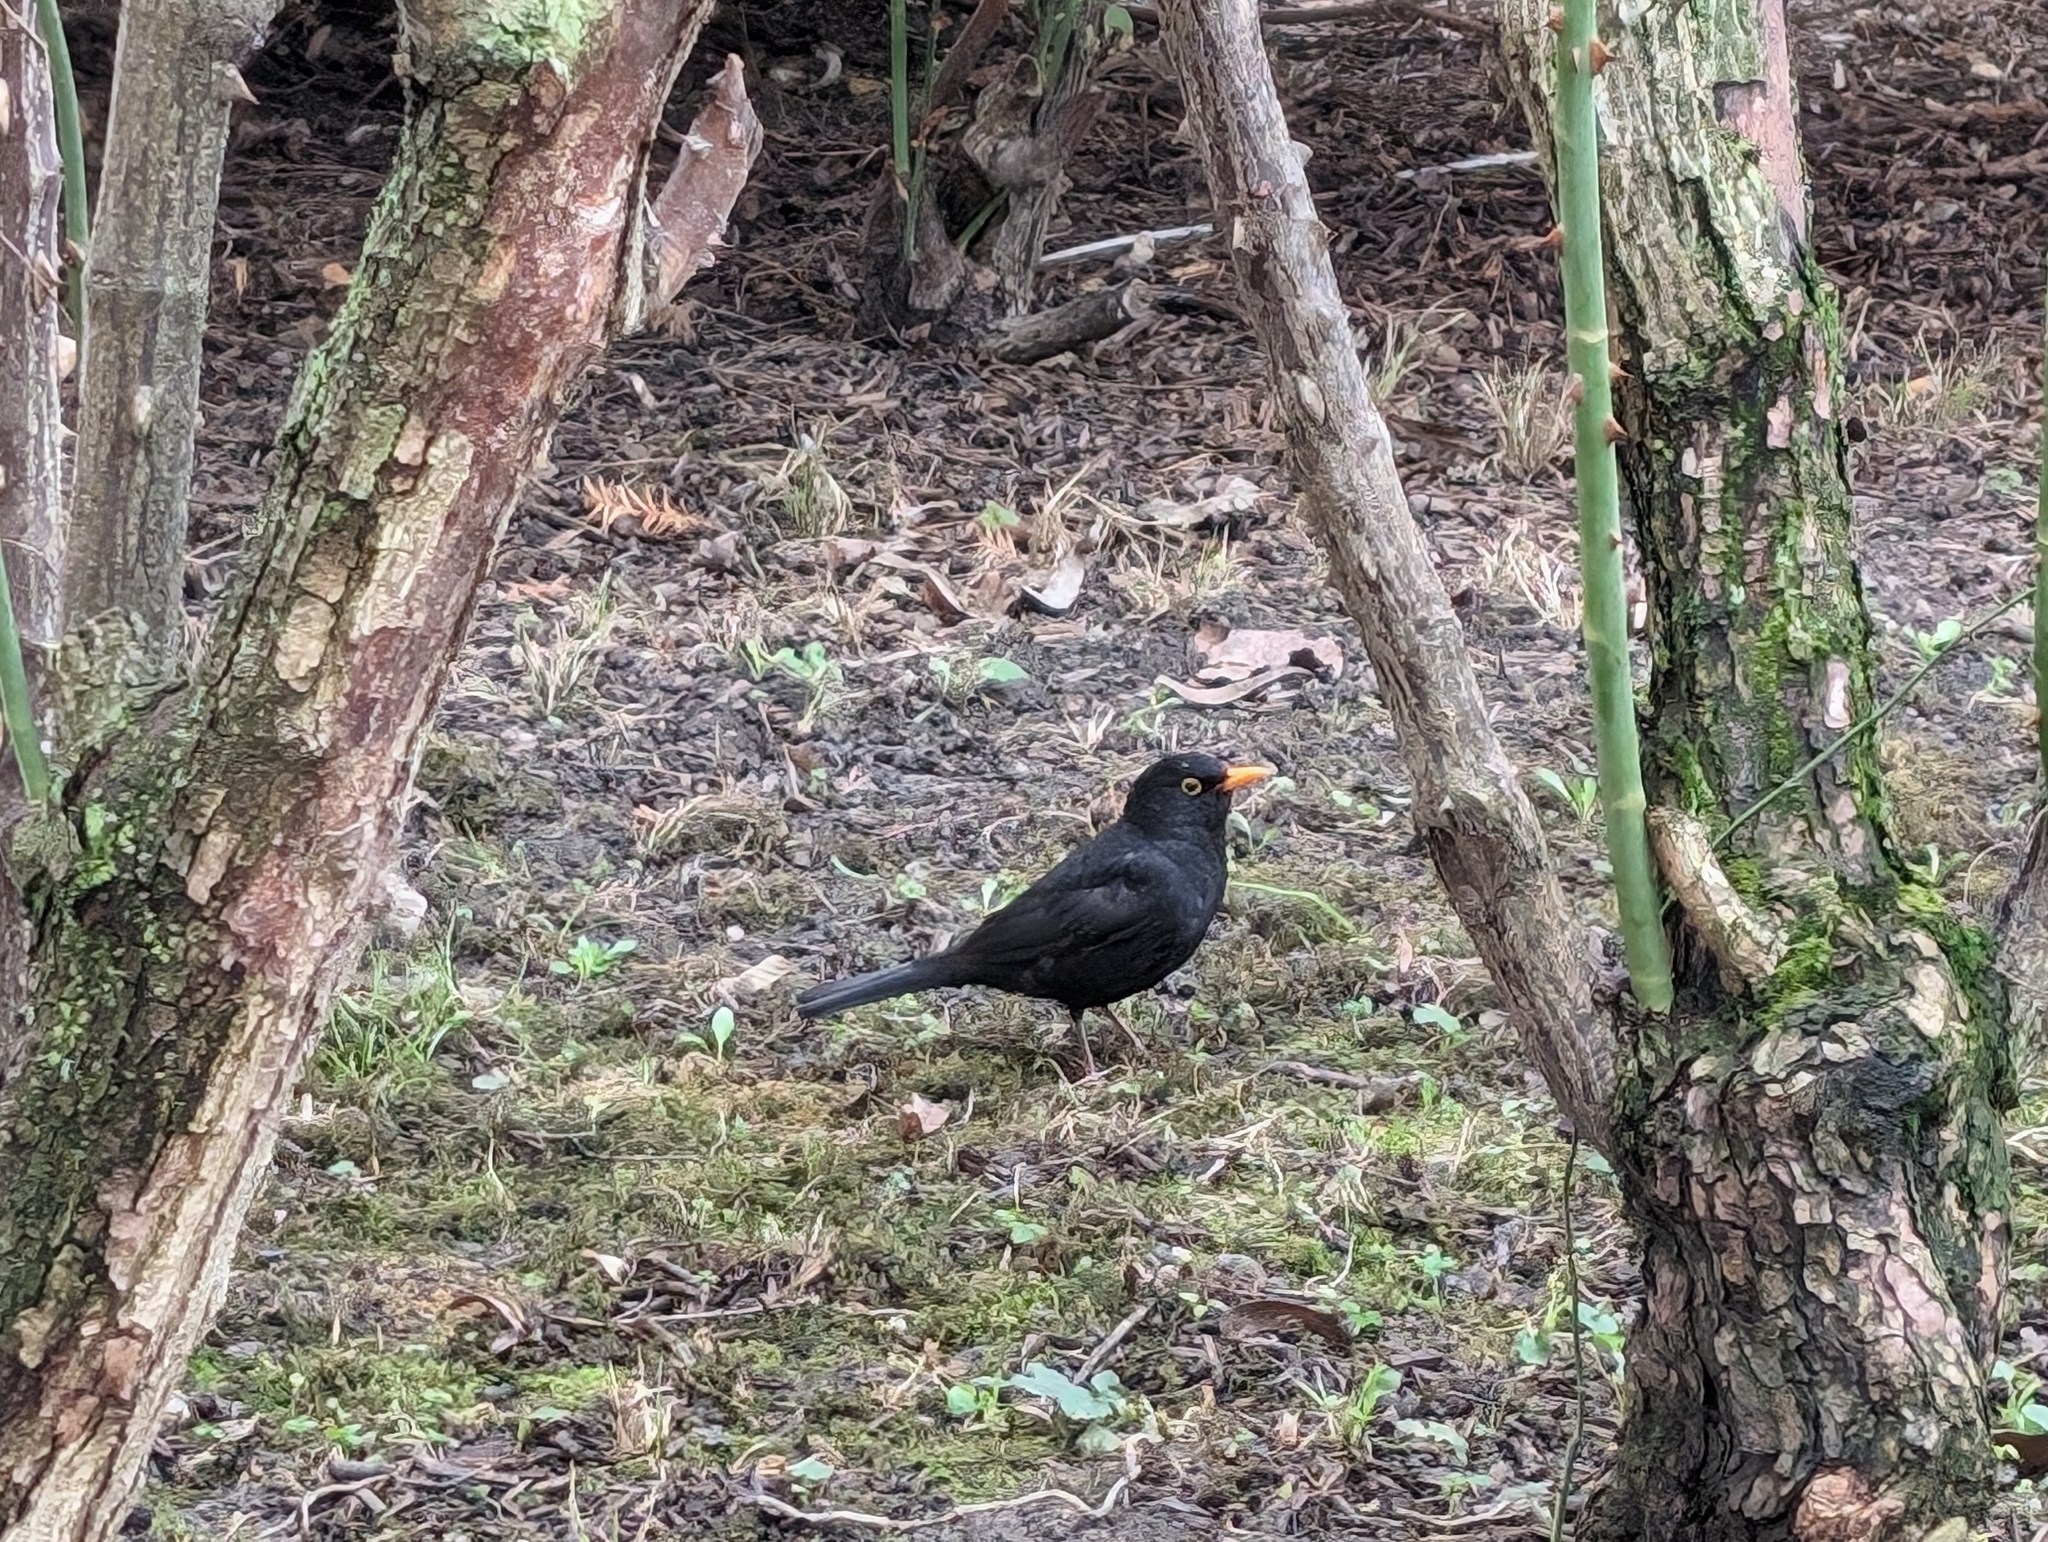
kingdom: Animalia
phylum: Chordata
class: Aves
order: Passeriformes
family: Turdidae
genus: Turdus
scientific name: Turdus merula
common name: Common blackbird
